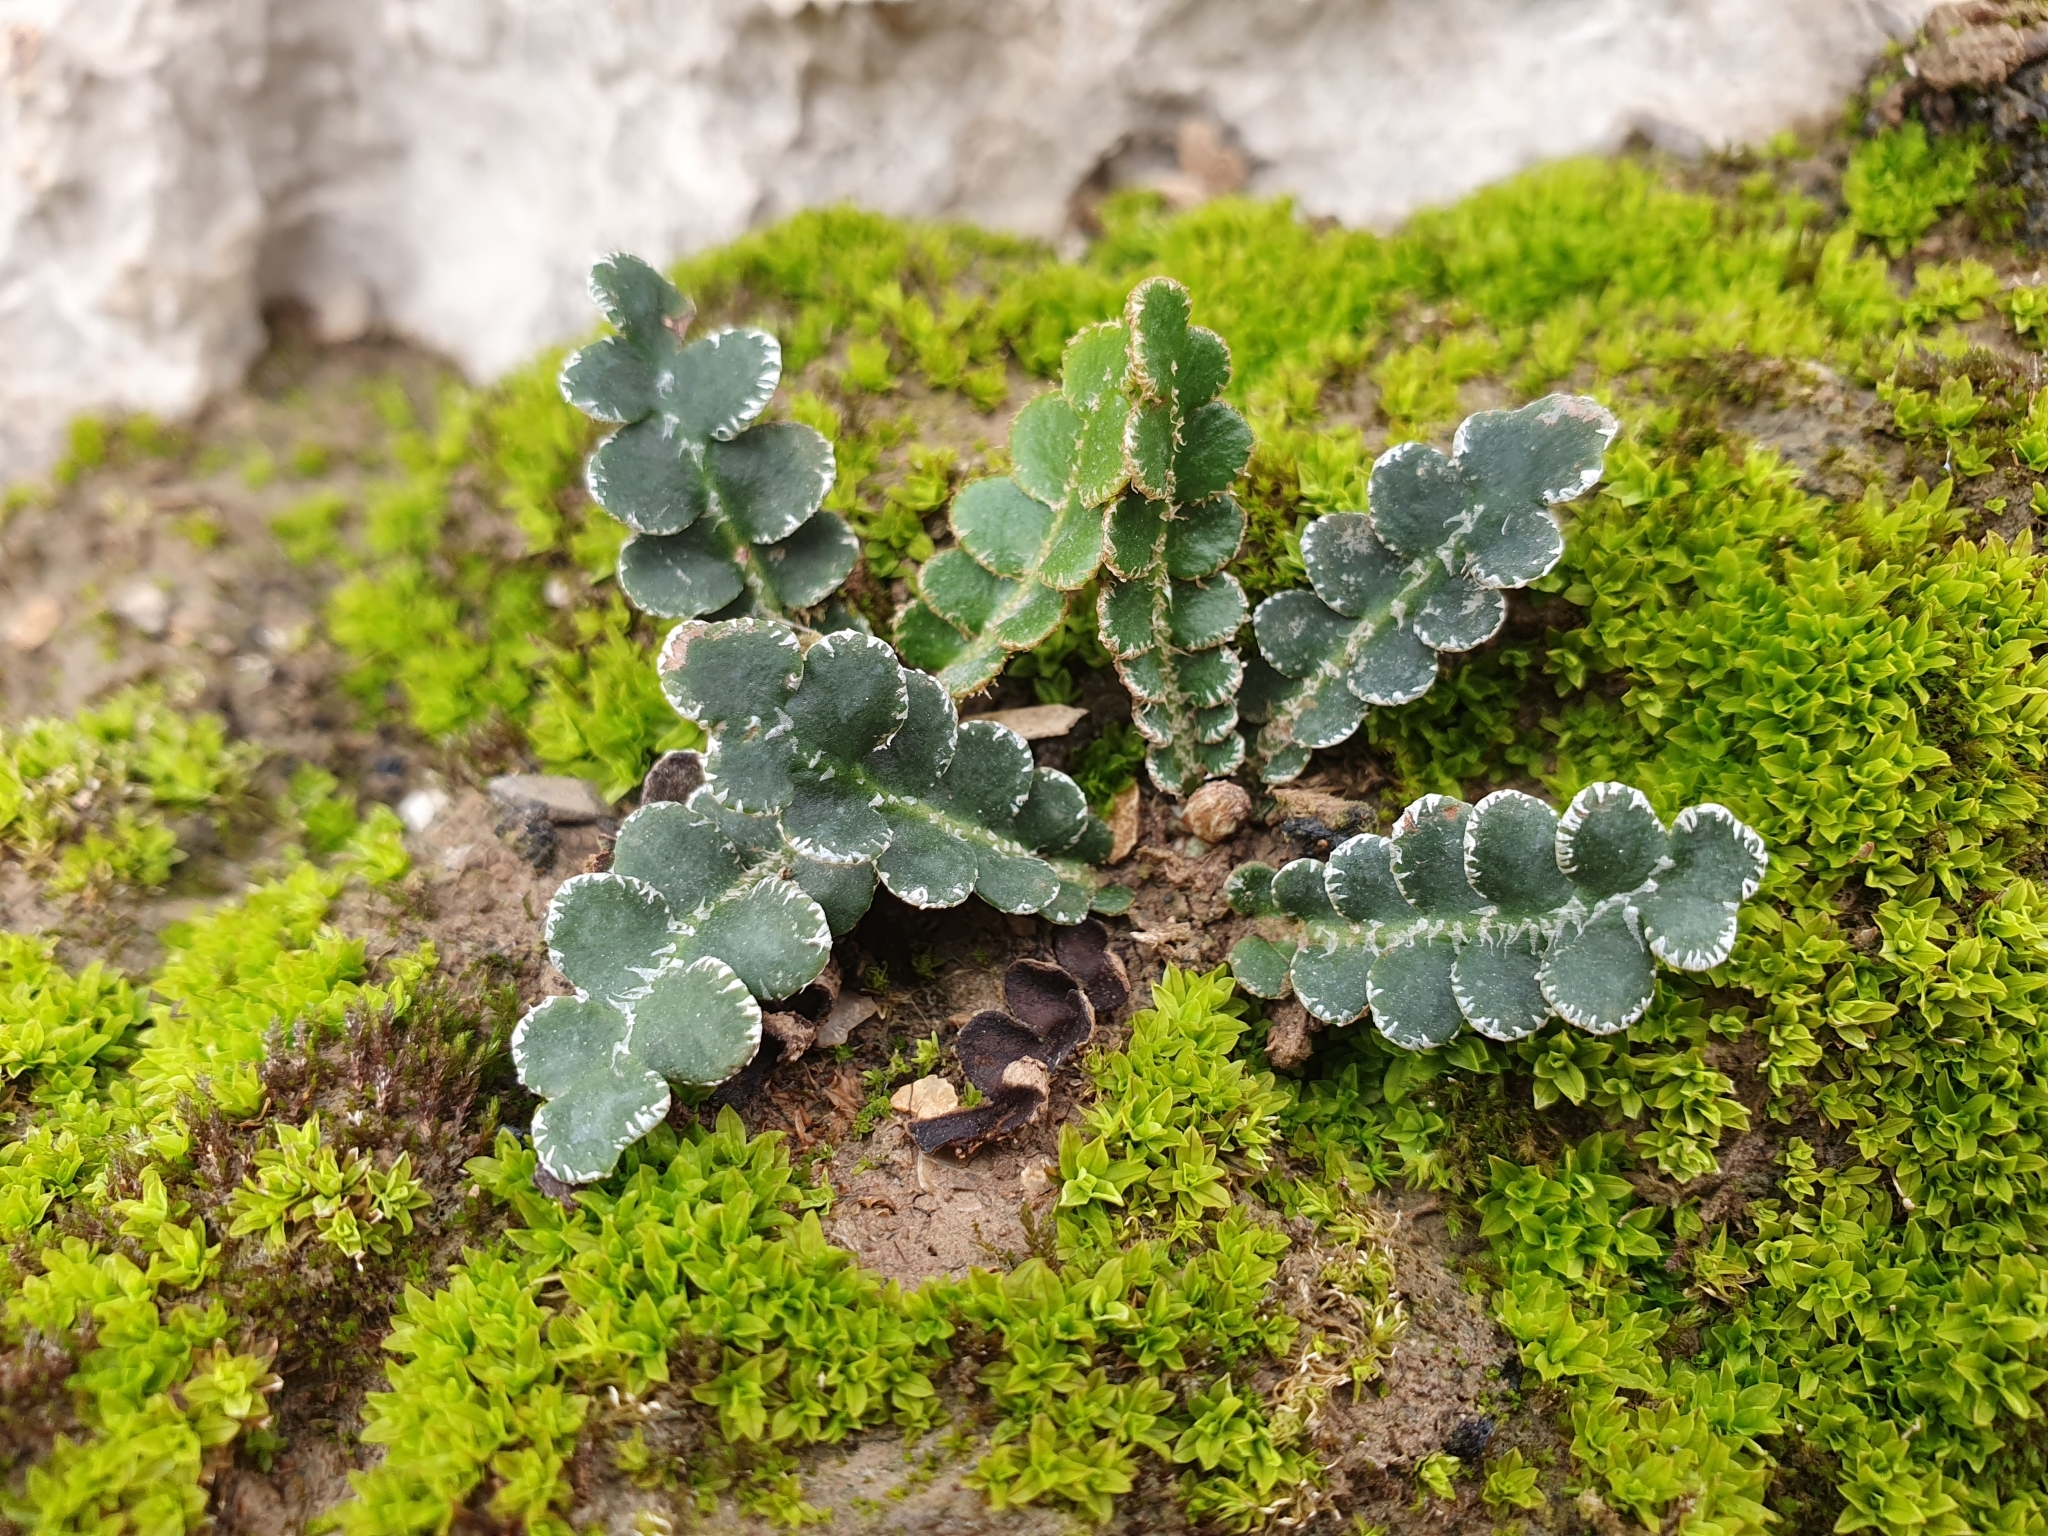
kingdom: Plantae
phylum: Tracheophyta
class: Polypodiopsida
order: Polypodiales
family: Aspleniaceae
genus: Asplenium
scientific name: Asplenium ceterach
